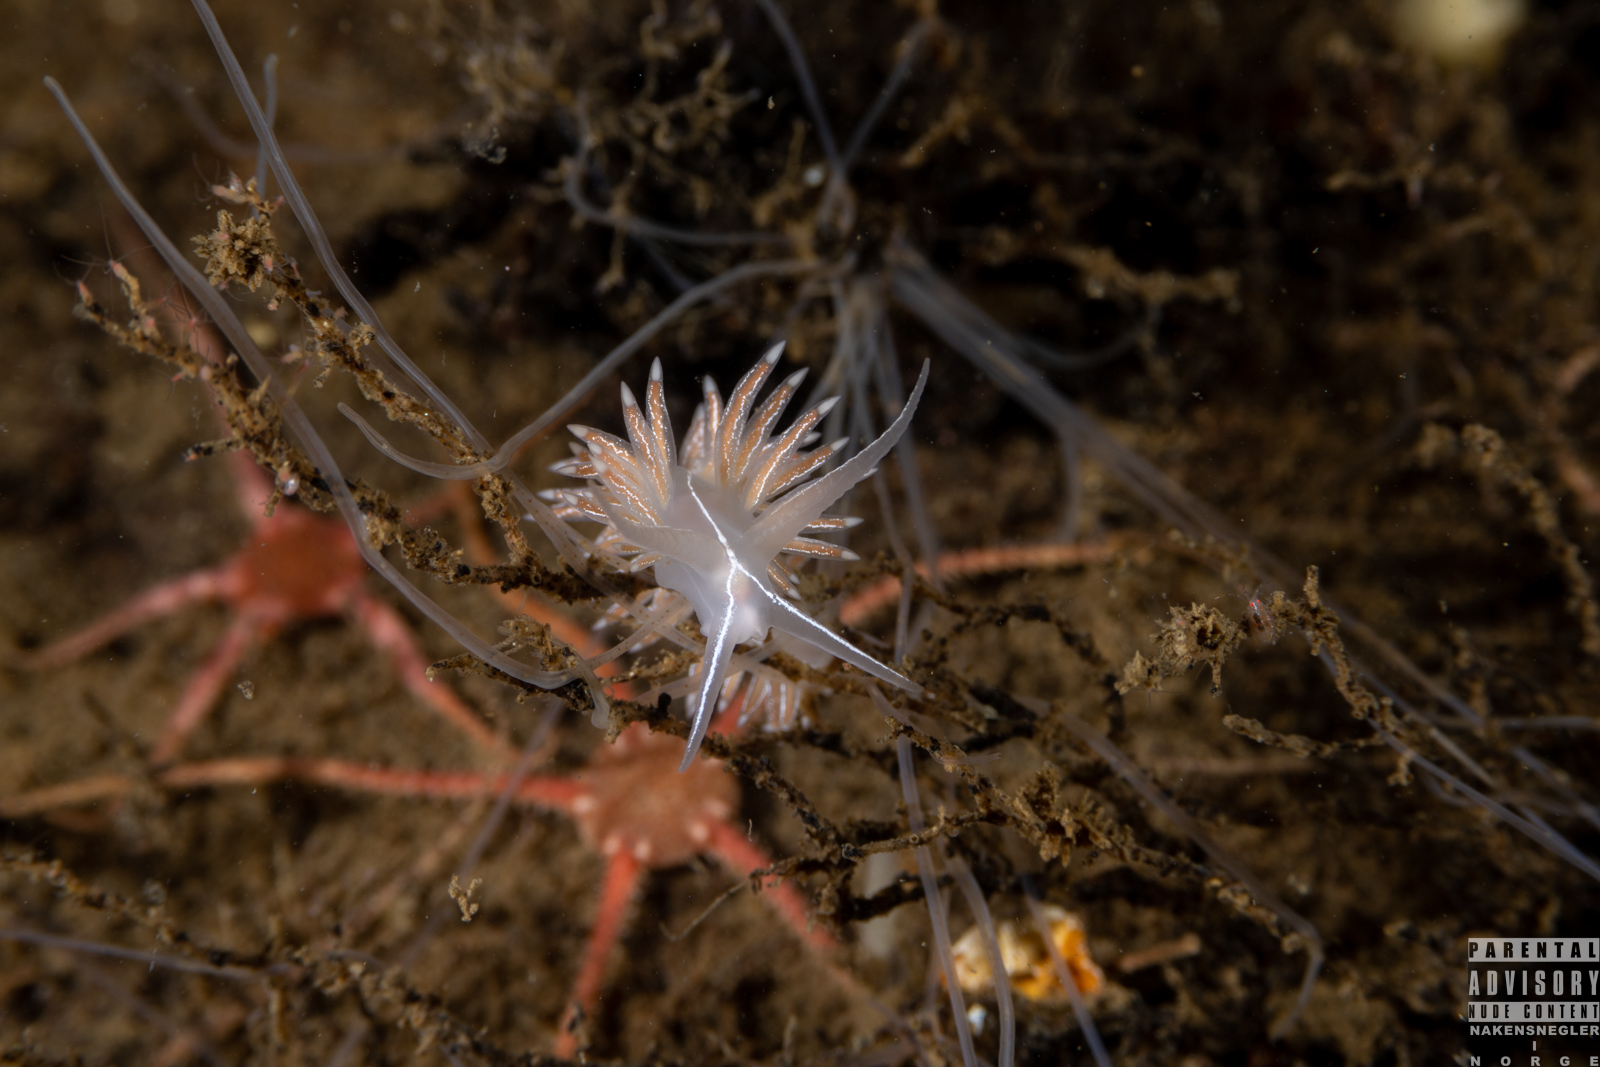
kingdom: Animalia
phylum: Mollusca
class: Gastropoda
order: Nudibranchia
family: Coryphellidae
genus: Coryphella
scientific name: Coryphella chriskaugei
